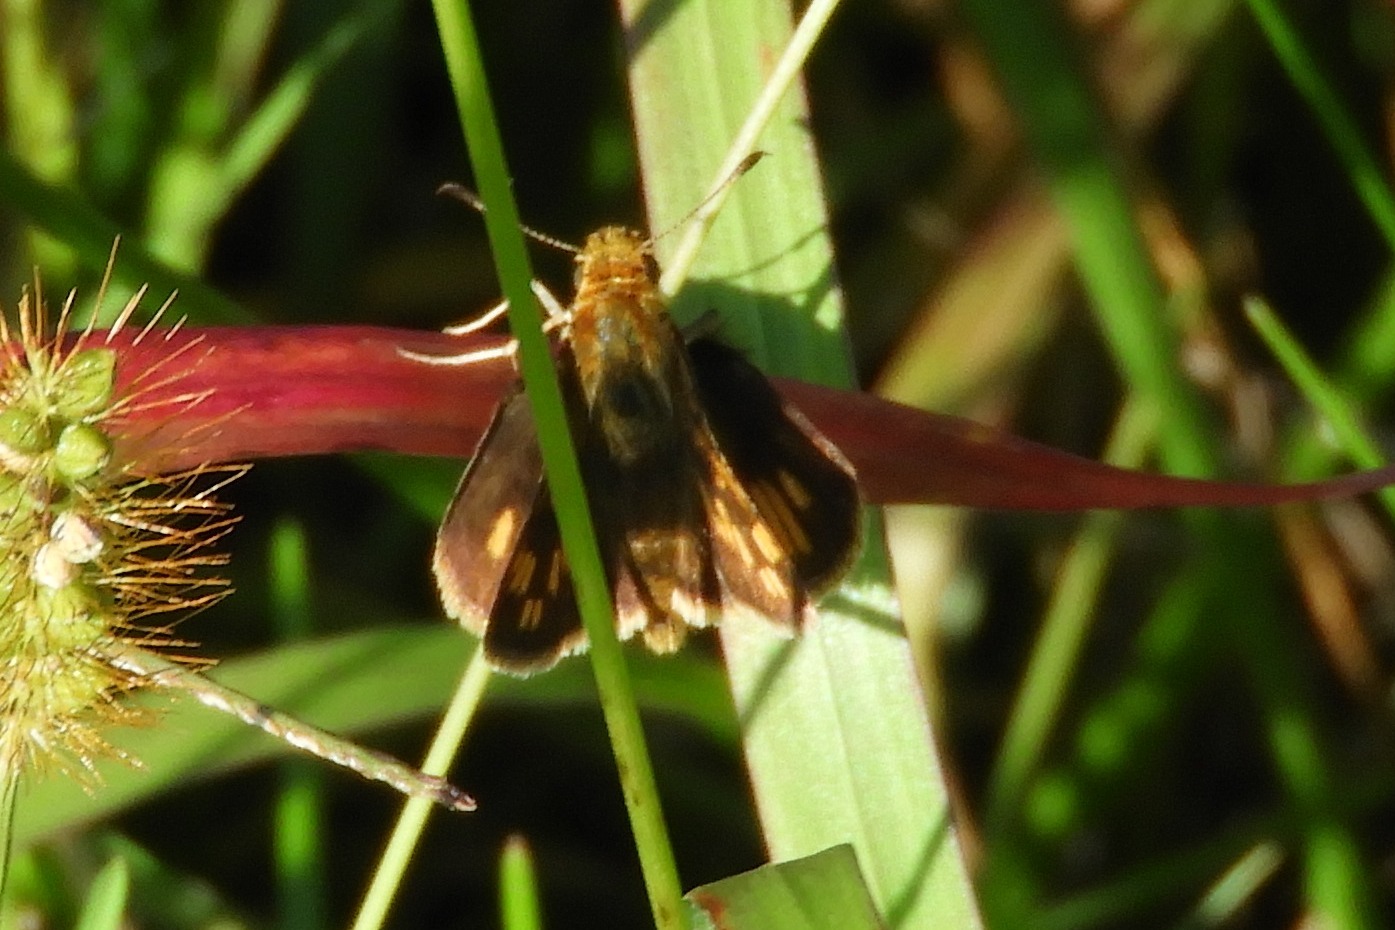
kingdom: Animalia
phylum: Arthropoda
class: Insecta
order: Lepidoptera
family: Hesperiidae
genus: Polites
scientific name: Polites coras
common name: Peck's skipper
